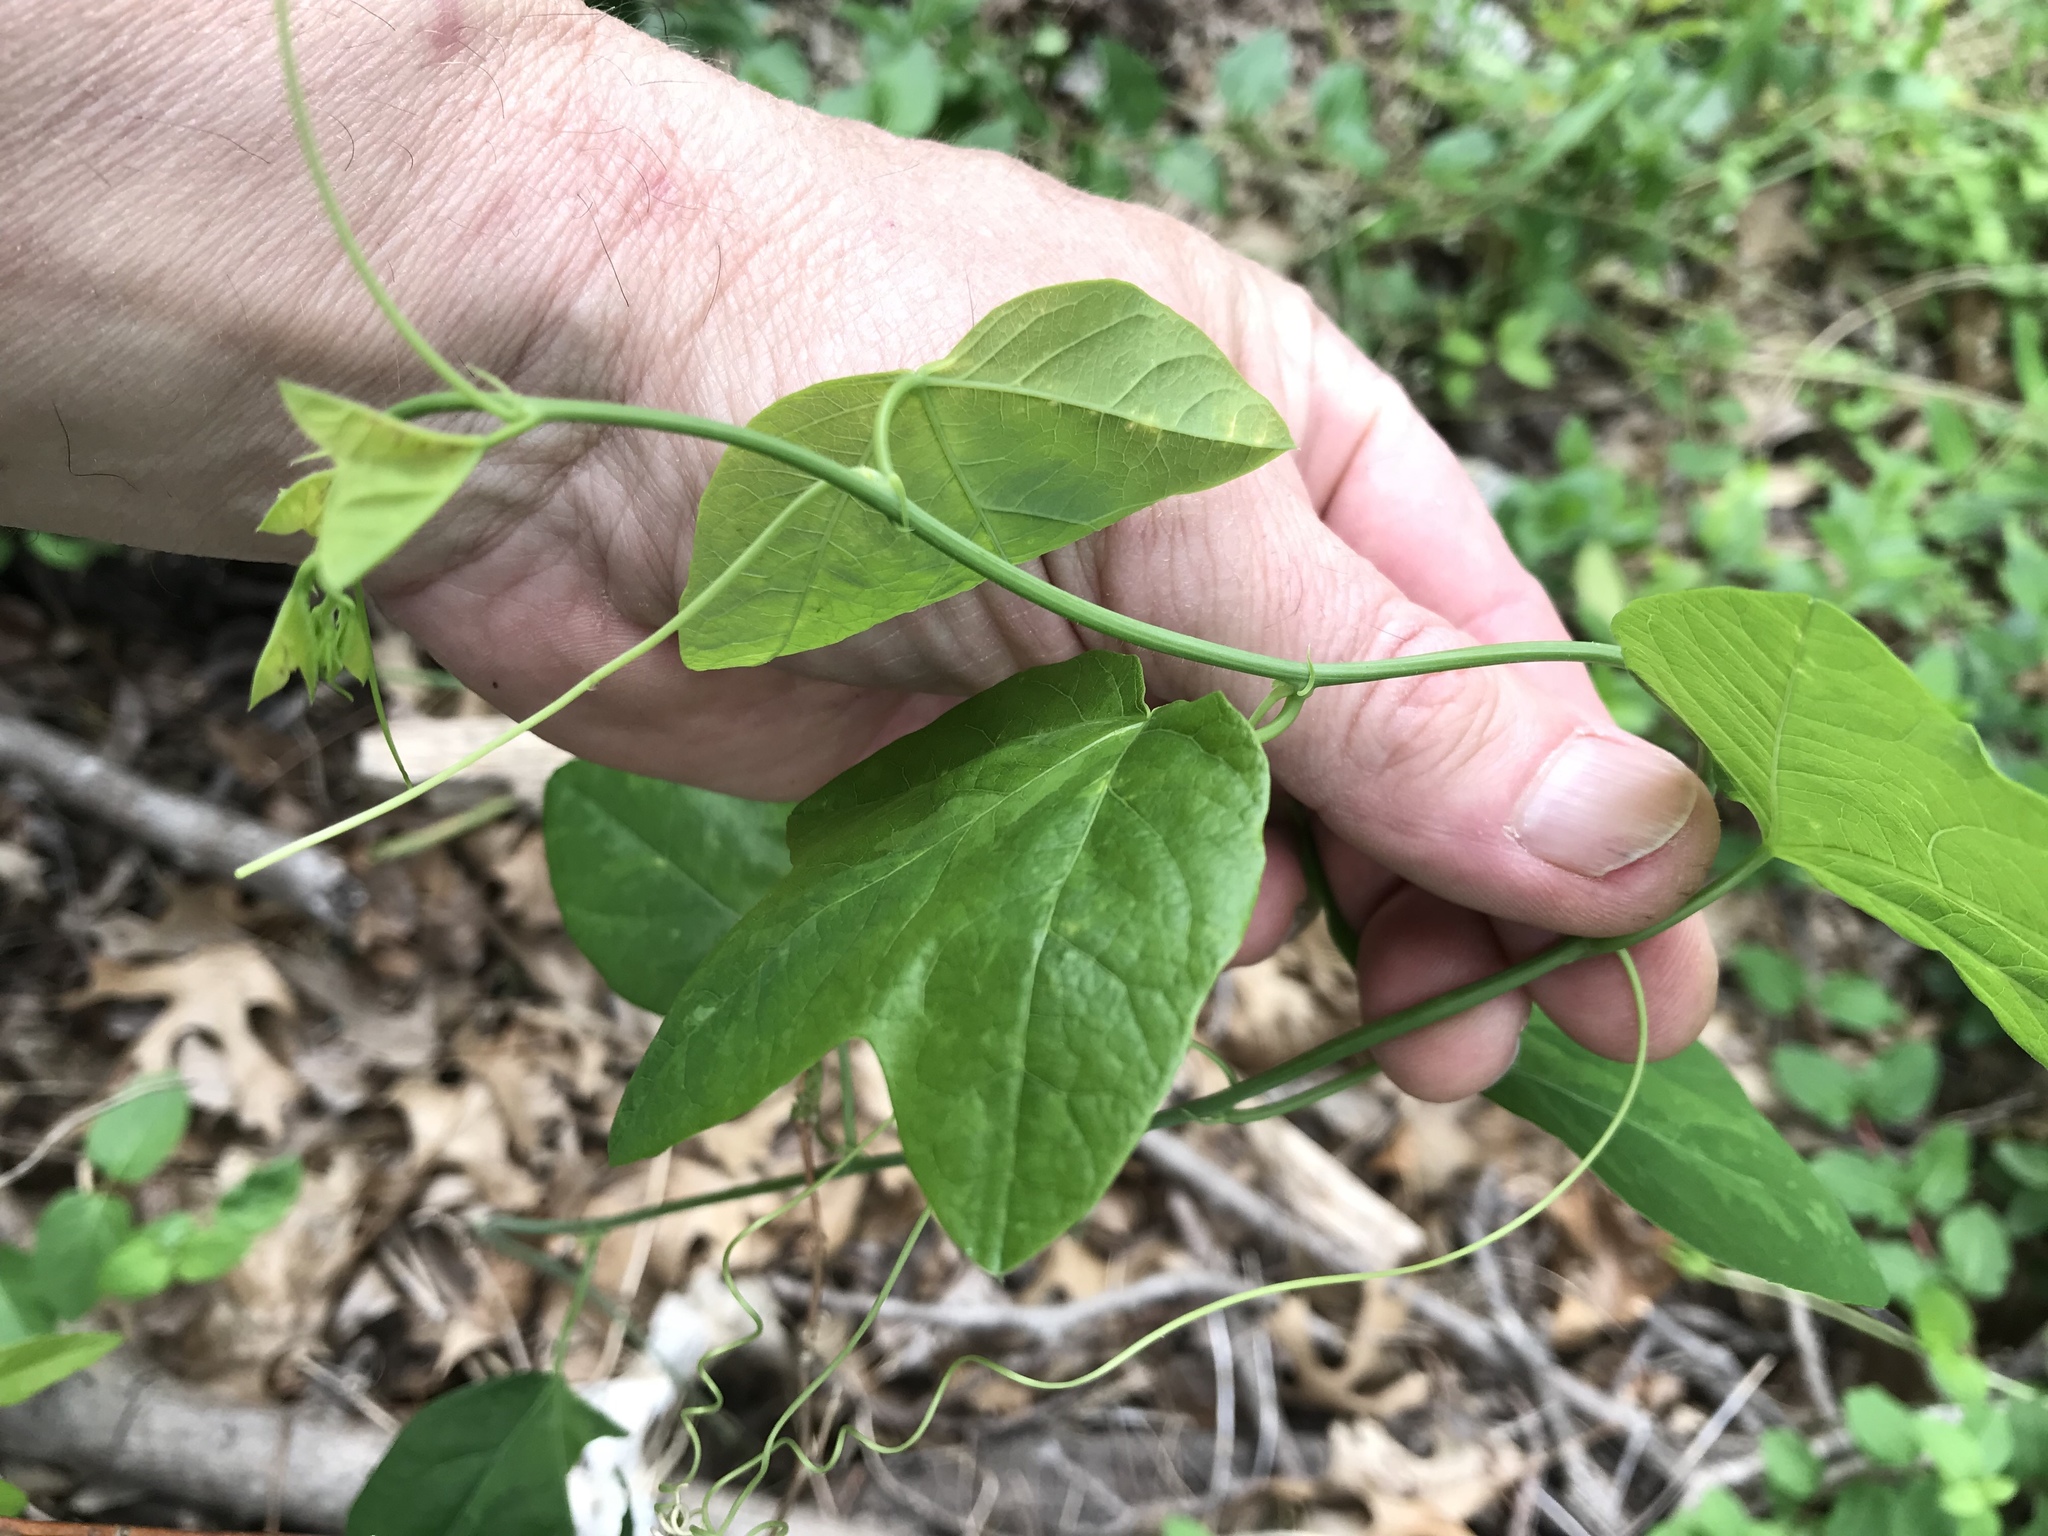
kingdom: Plantae
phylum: Tracheophyta
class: Magnoliopsida
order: Malpighiales
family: Passifloraceae
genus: Passiflora
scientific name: Passiflora lutea
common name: Yellow passionflower
